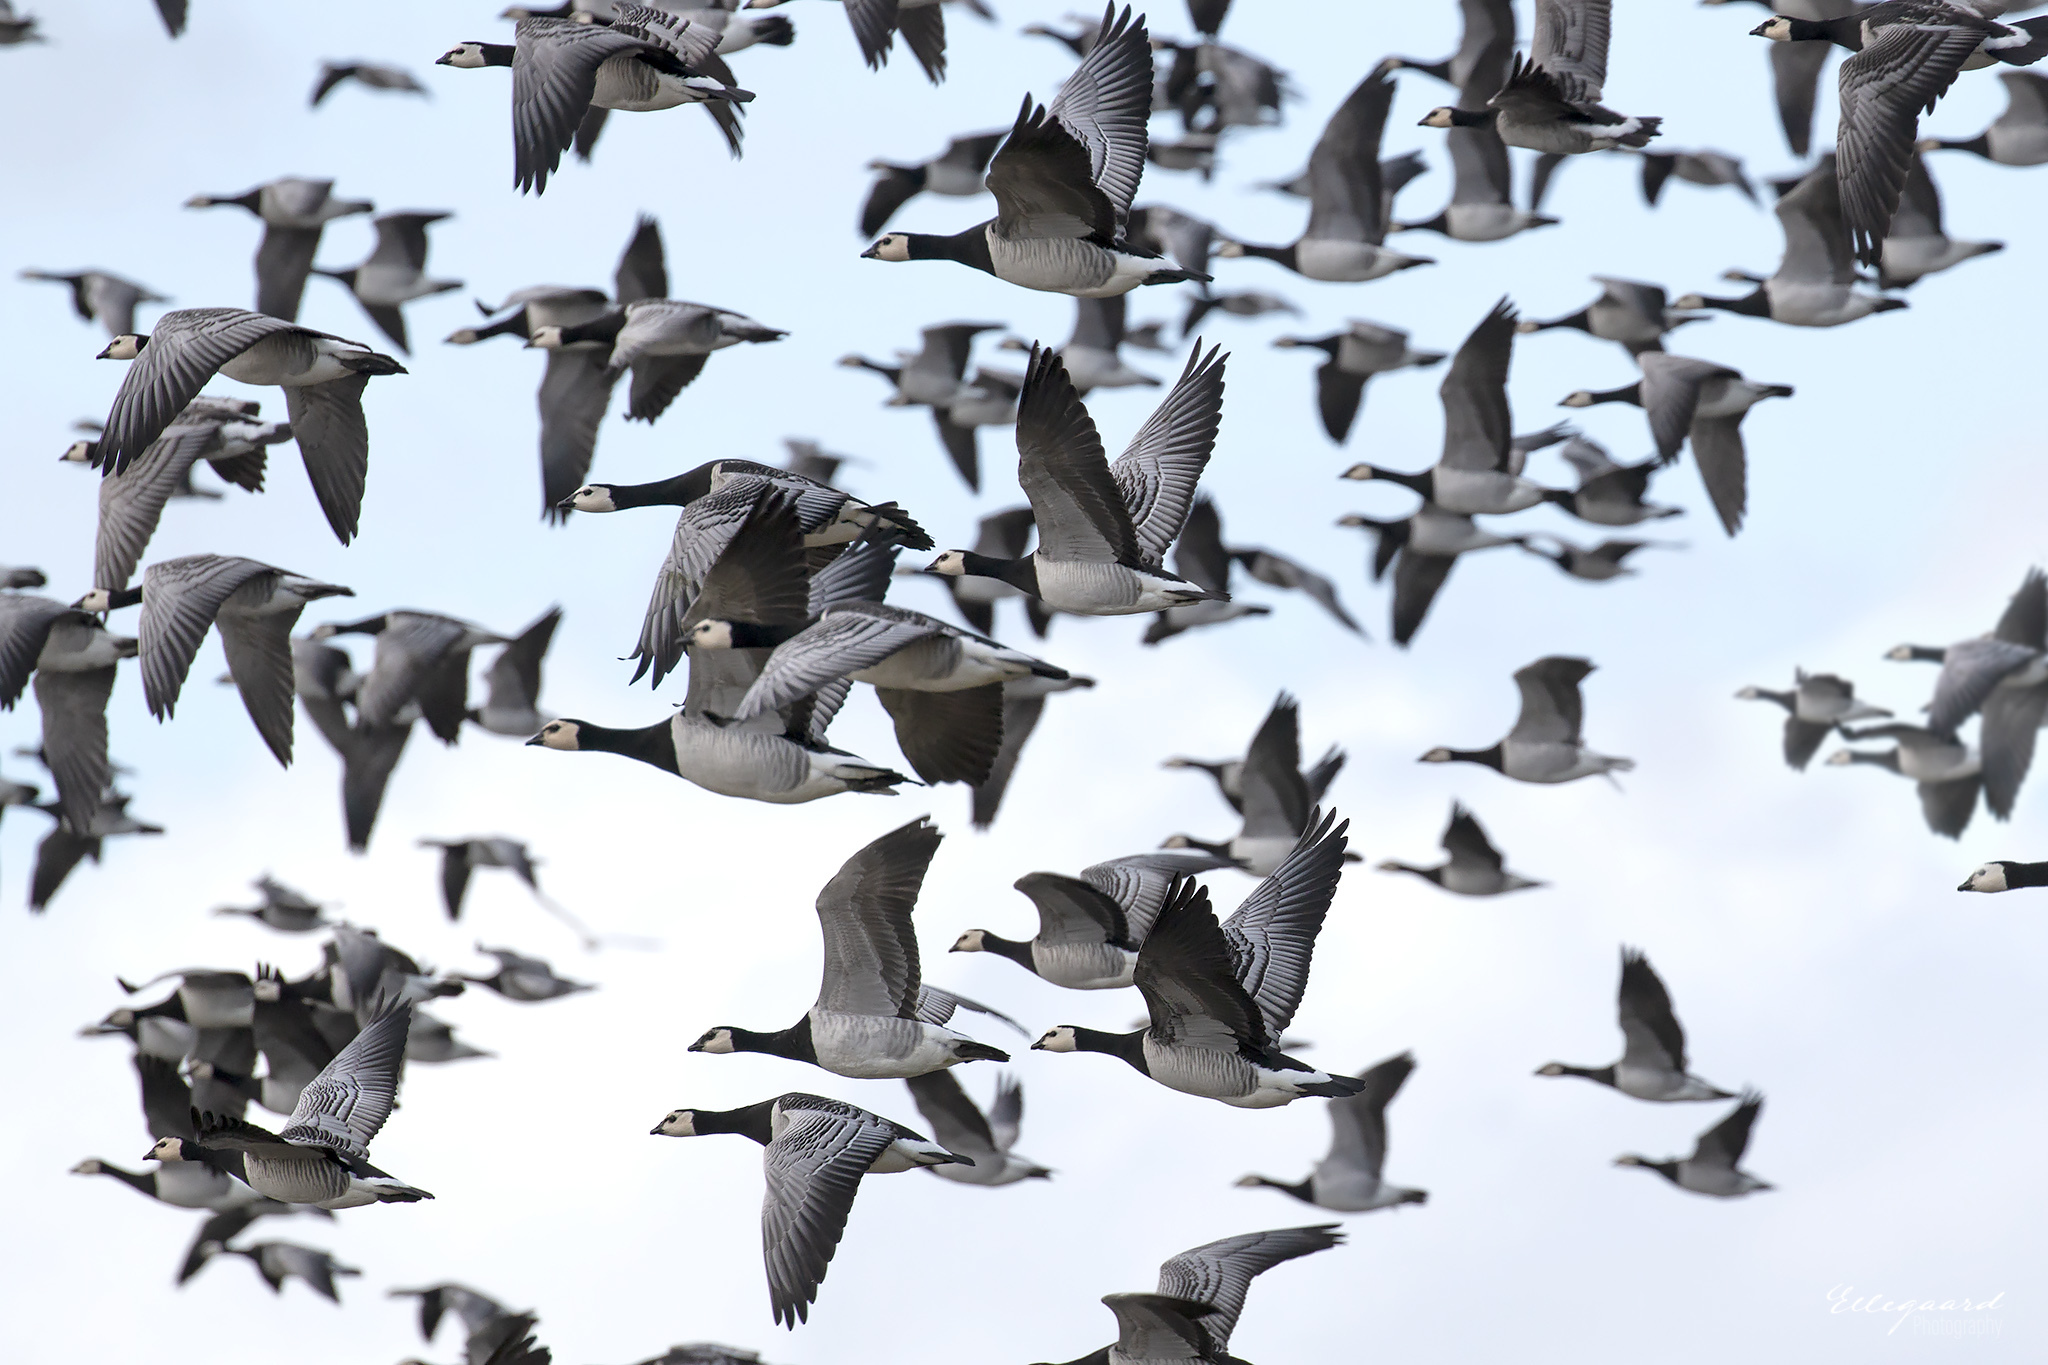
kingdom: Animalia
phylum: Chordata
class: Aves
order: Anseriformes
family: Anatidae
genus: Branta
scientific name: Branta leucopsis
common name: Barnacle goose
